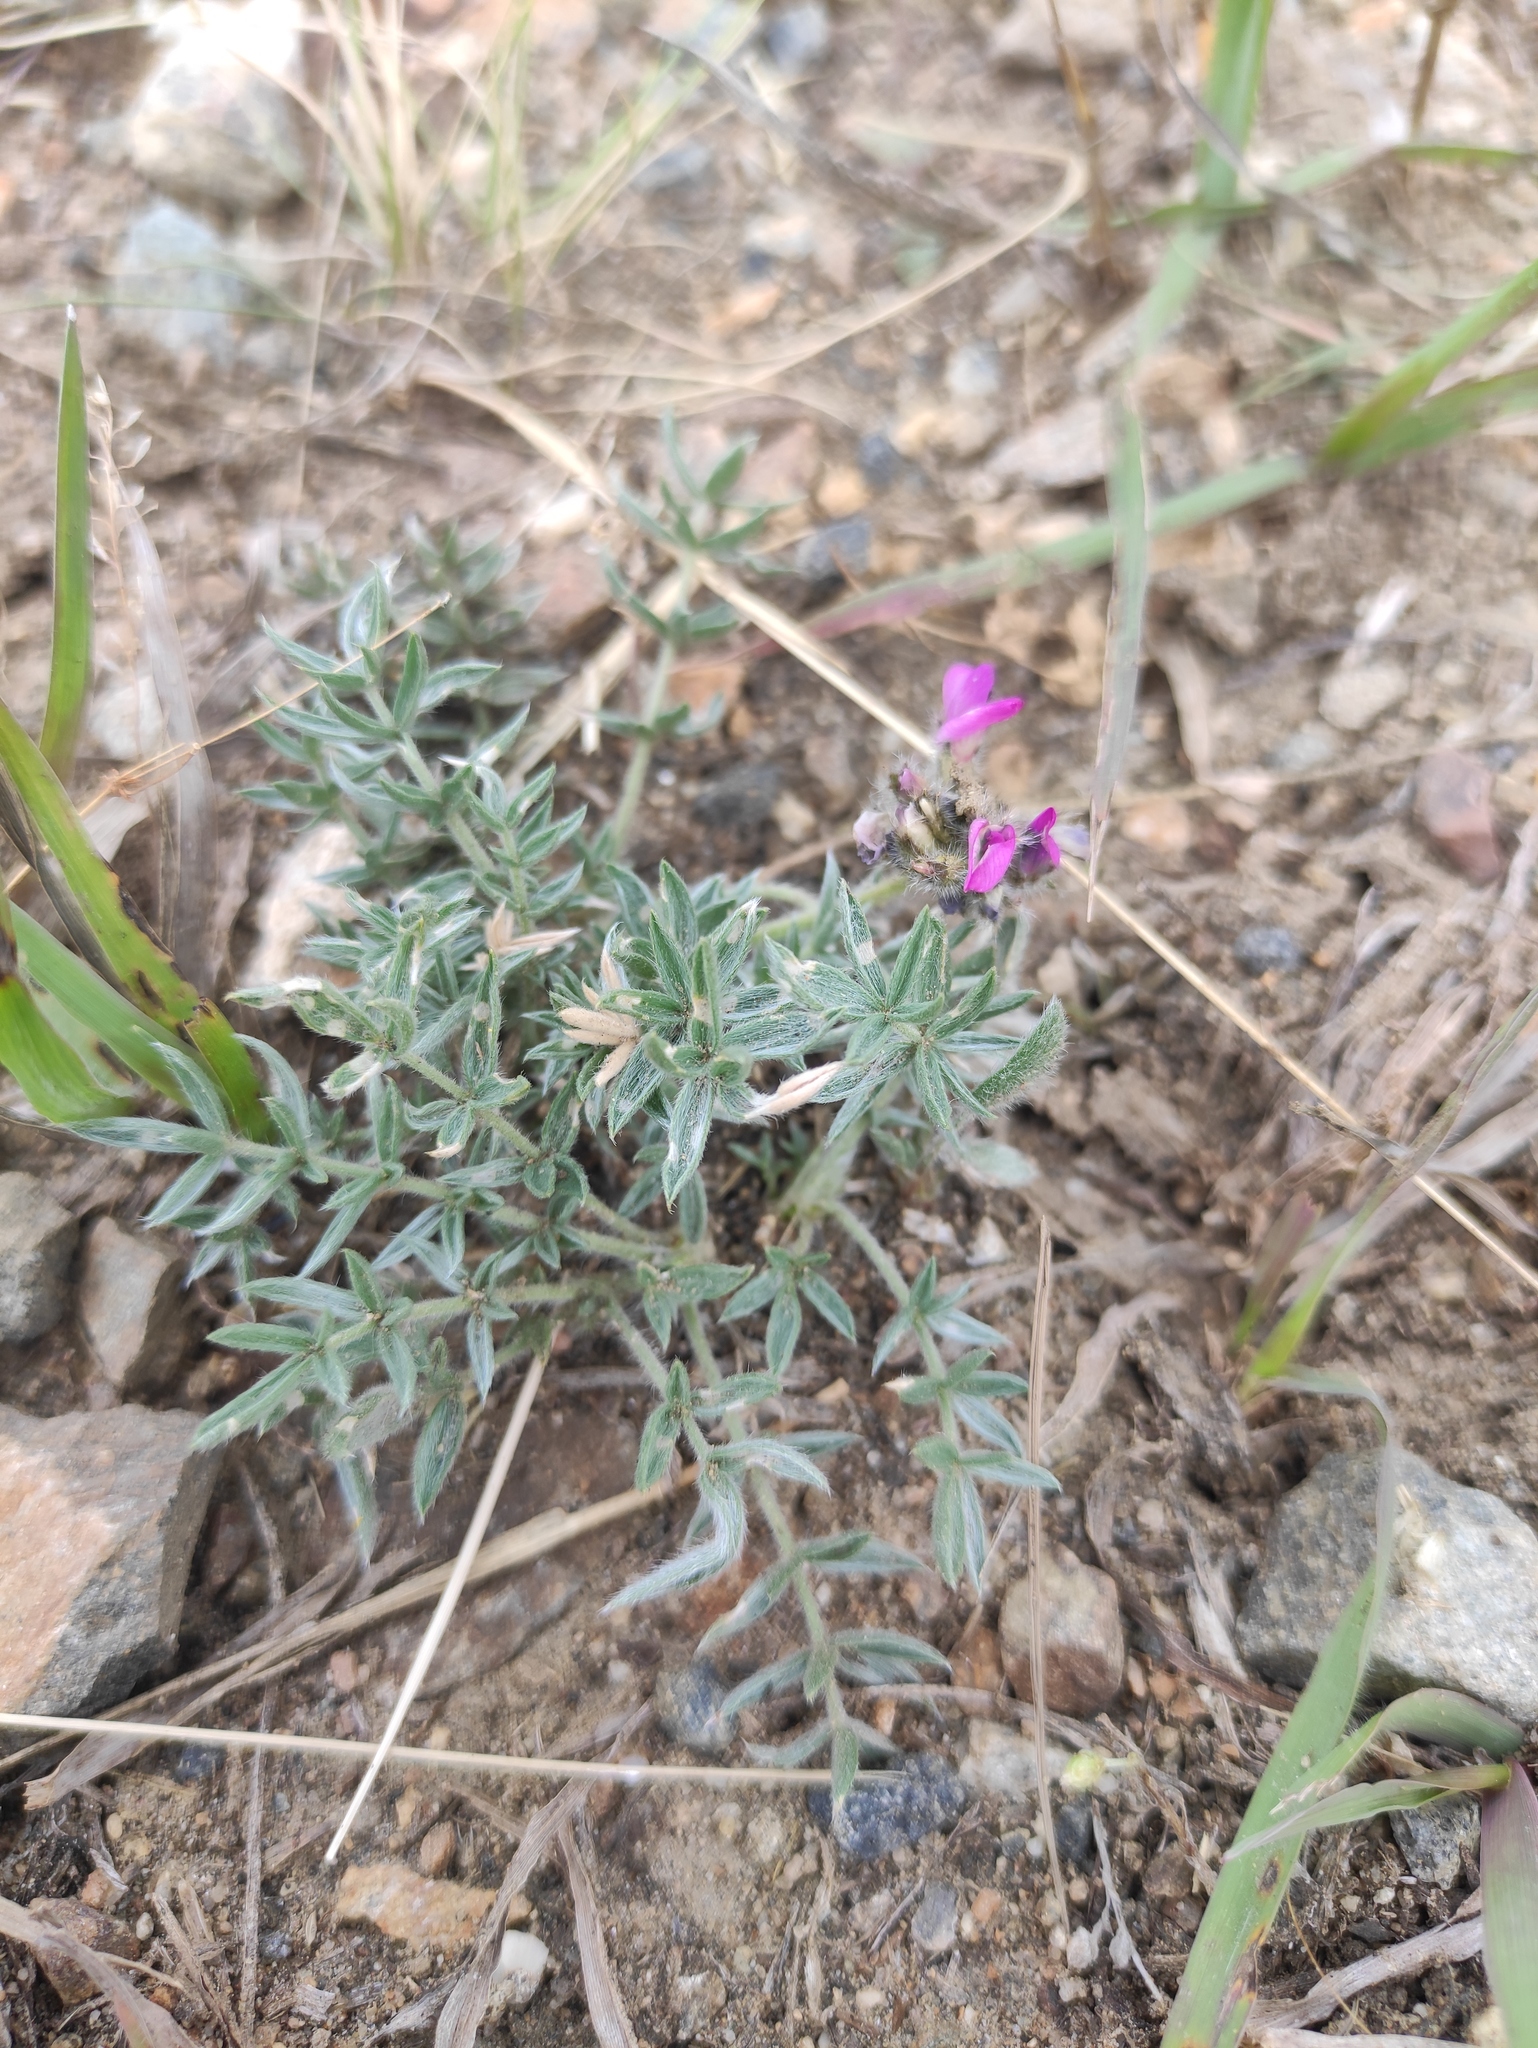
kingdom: Plantae
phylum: Tracheophyta
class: Magnoliopsida
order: Fabales
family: Fabaceae
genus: Oxytropis
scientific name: Oxytropis turczaninovii
